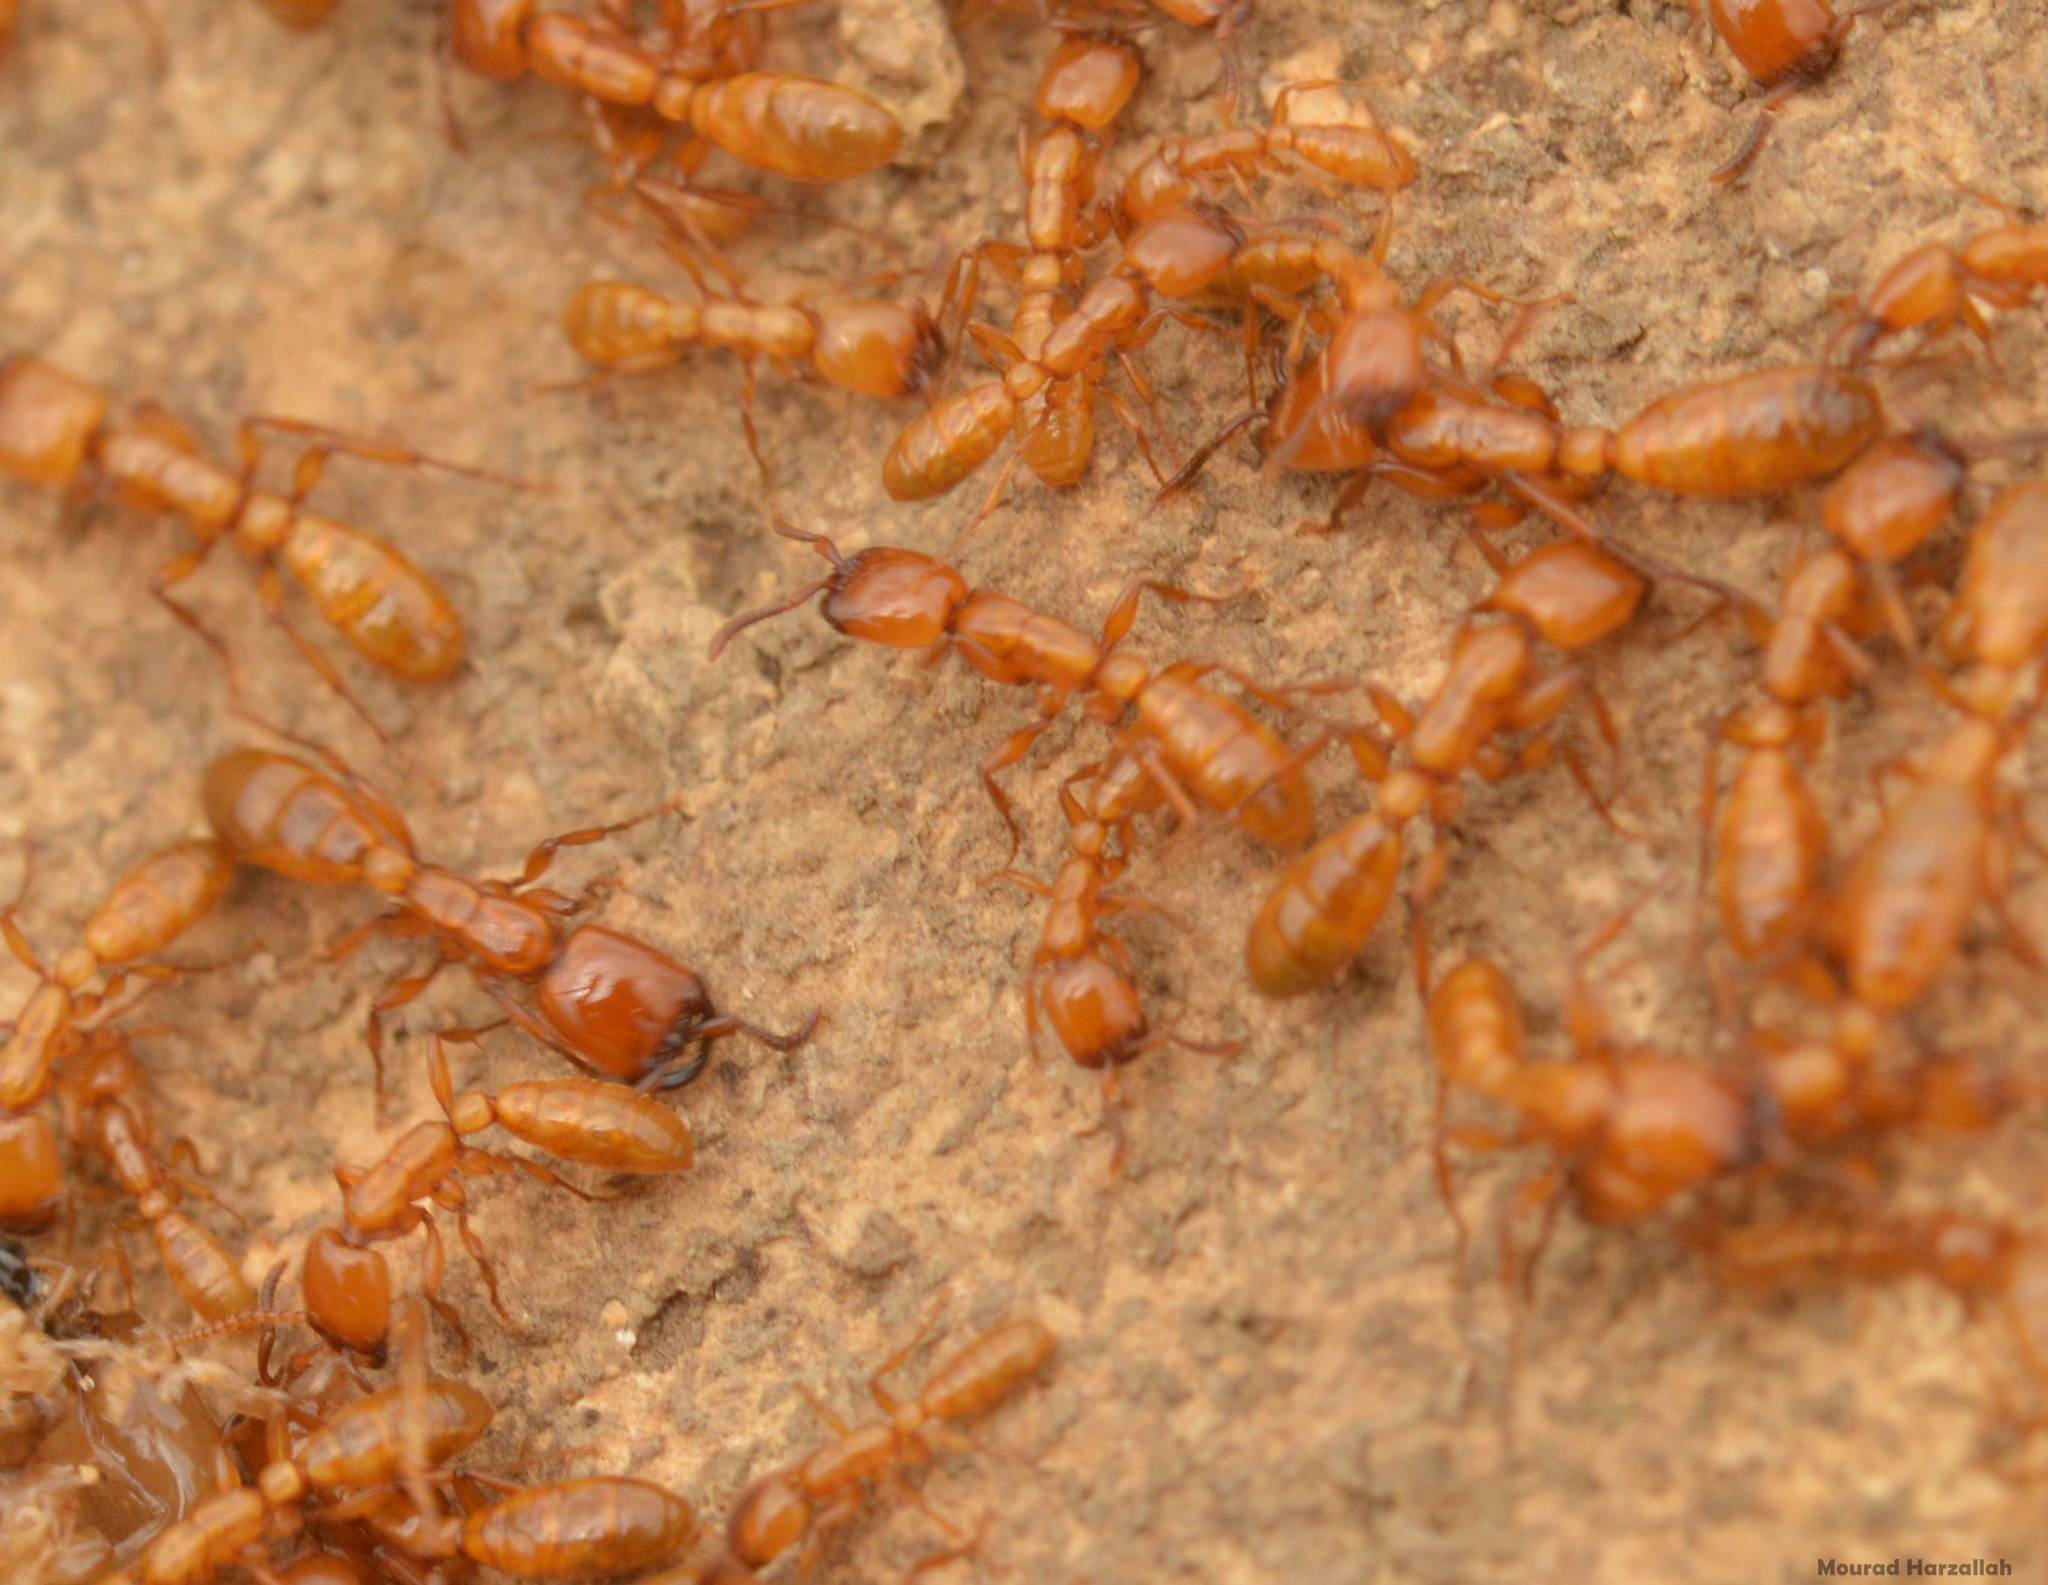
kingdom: Animalia
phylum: Arthropoda
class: Insecta
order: Hymenoptera
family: Formicidae
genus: Dorylus
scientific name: Dorylus fulvus
